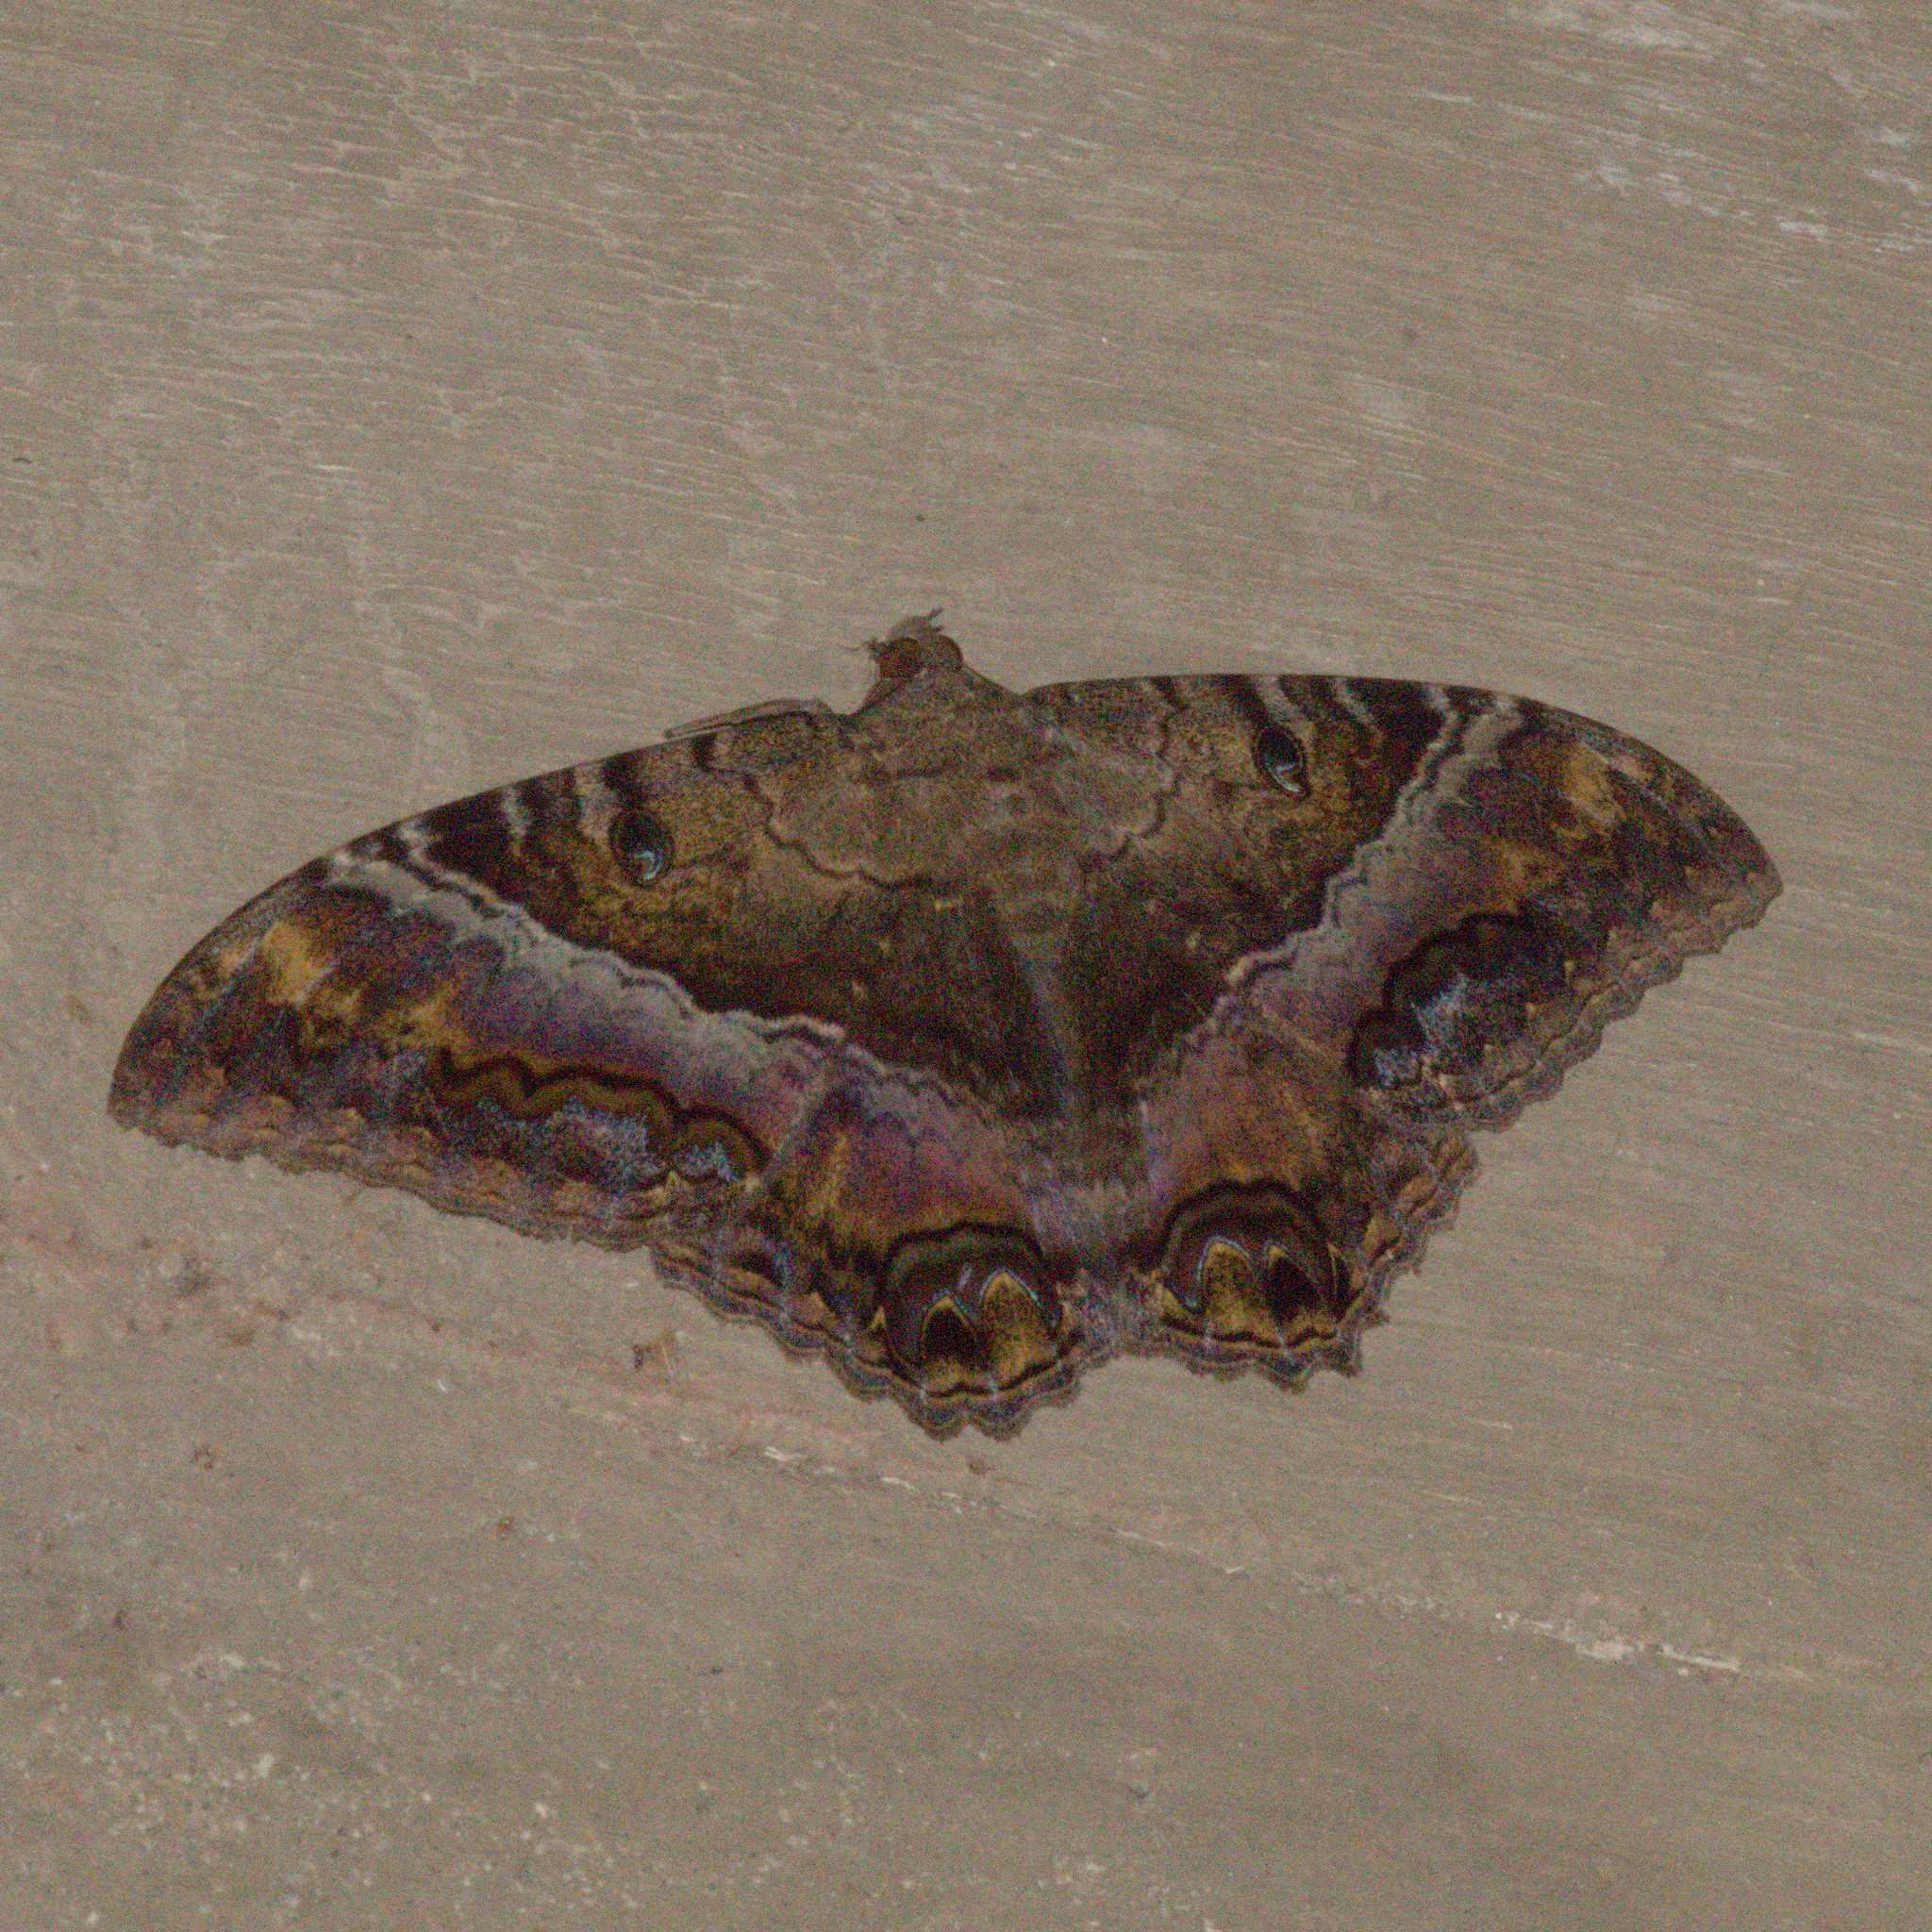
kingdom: Animalia
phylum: Arthropoda
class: Insecta
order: Lepidoptera
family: Erebidae
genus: Ascalapha
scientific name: Ascalapha odorata
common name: Black witch
